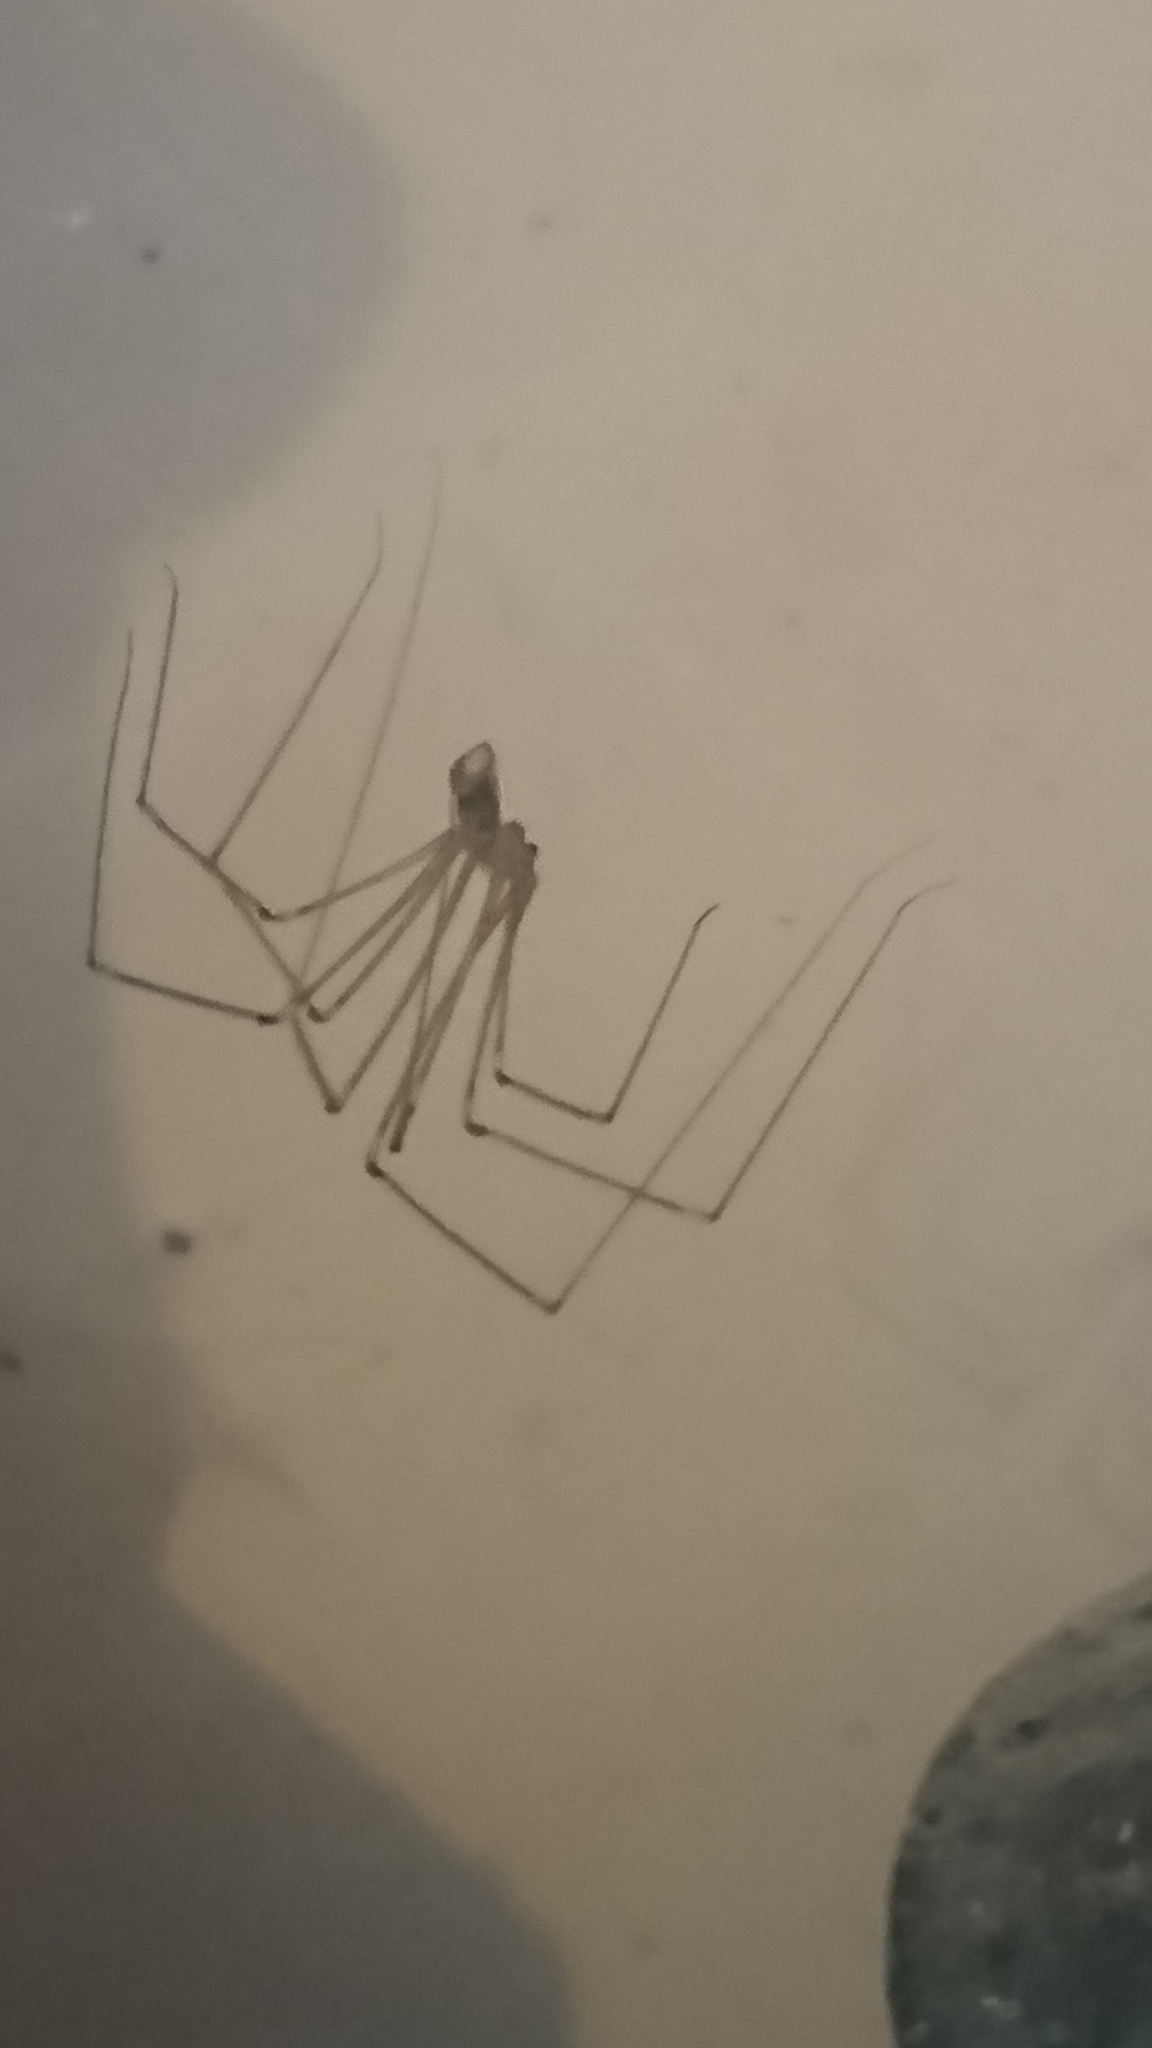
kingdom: Animalia
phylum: Arthropoda
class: Arachnida
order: Araneae
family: Pholcidae
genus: Pholcus
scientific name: Pholcus phalangioides
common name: Longbodied cellar spider
